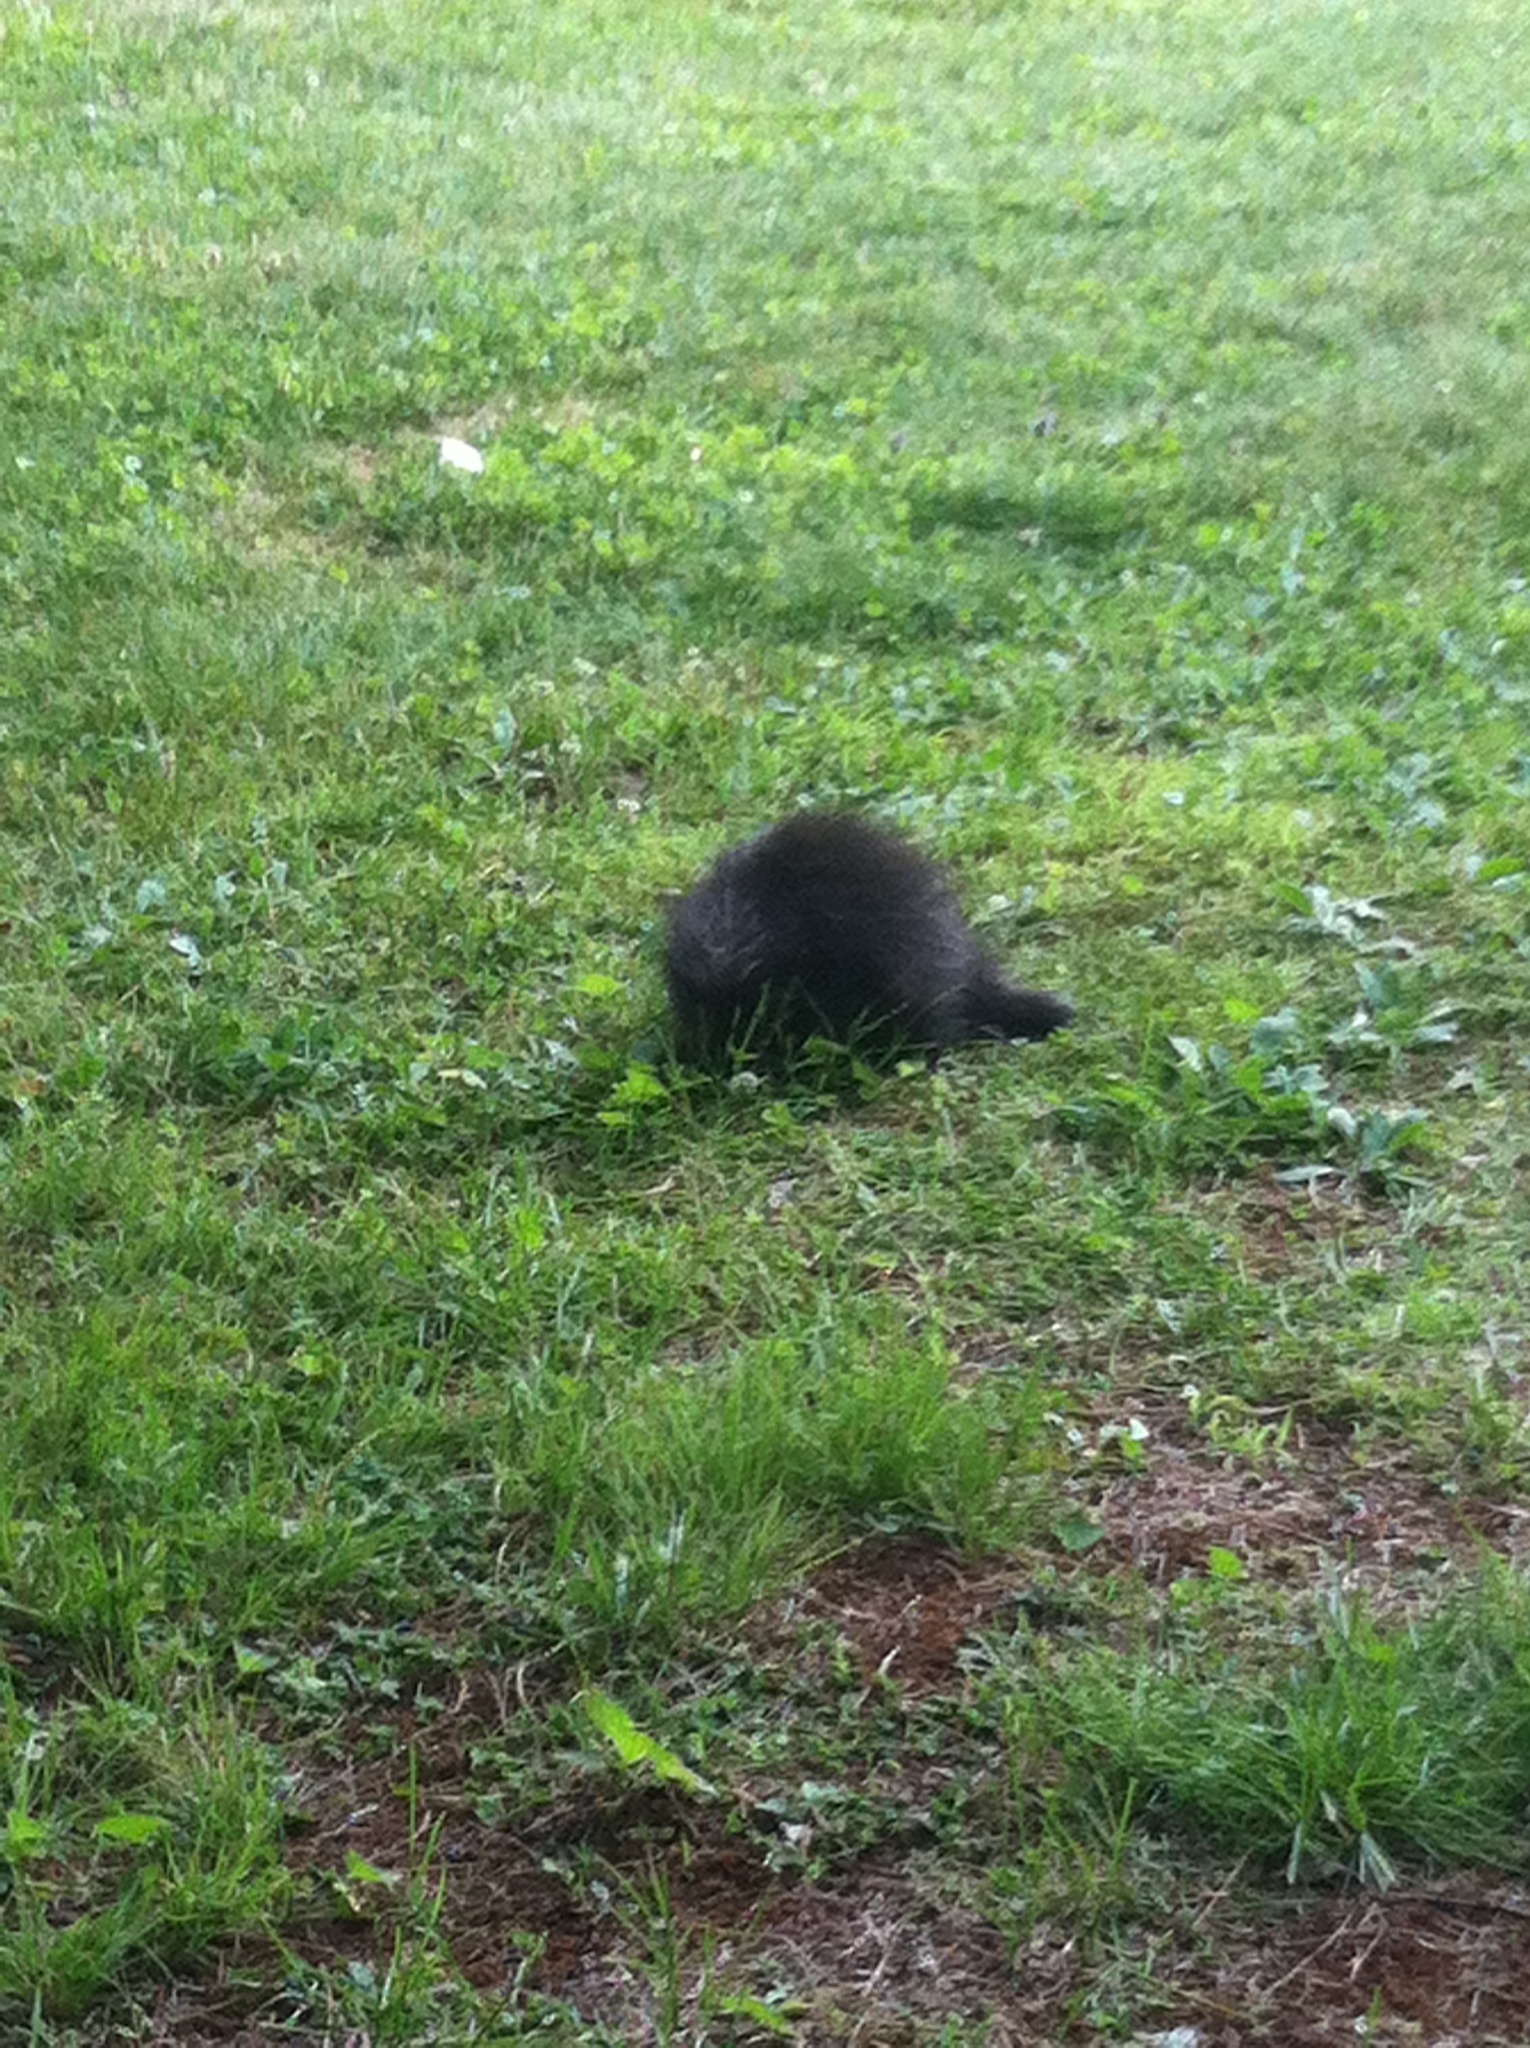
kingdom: Animalia
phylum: Chordata
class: Mammalia
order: Rodentia
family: Erethizontidae
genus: Erethizon
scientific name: Erethizon dorsatus
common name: North american porcupine
